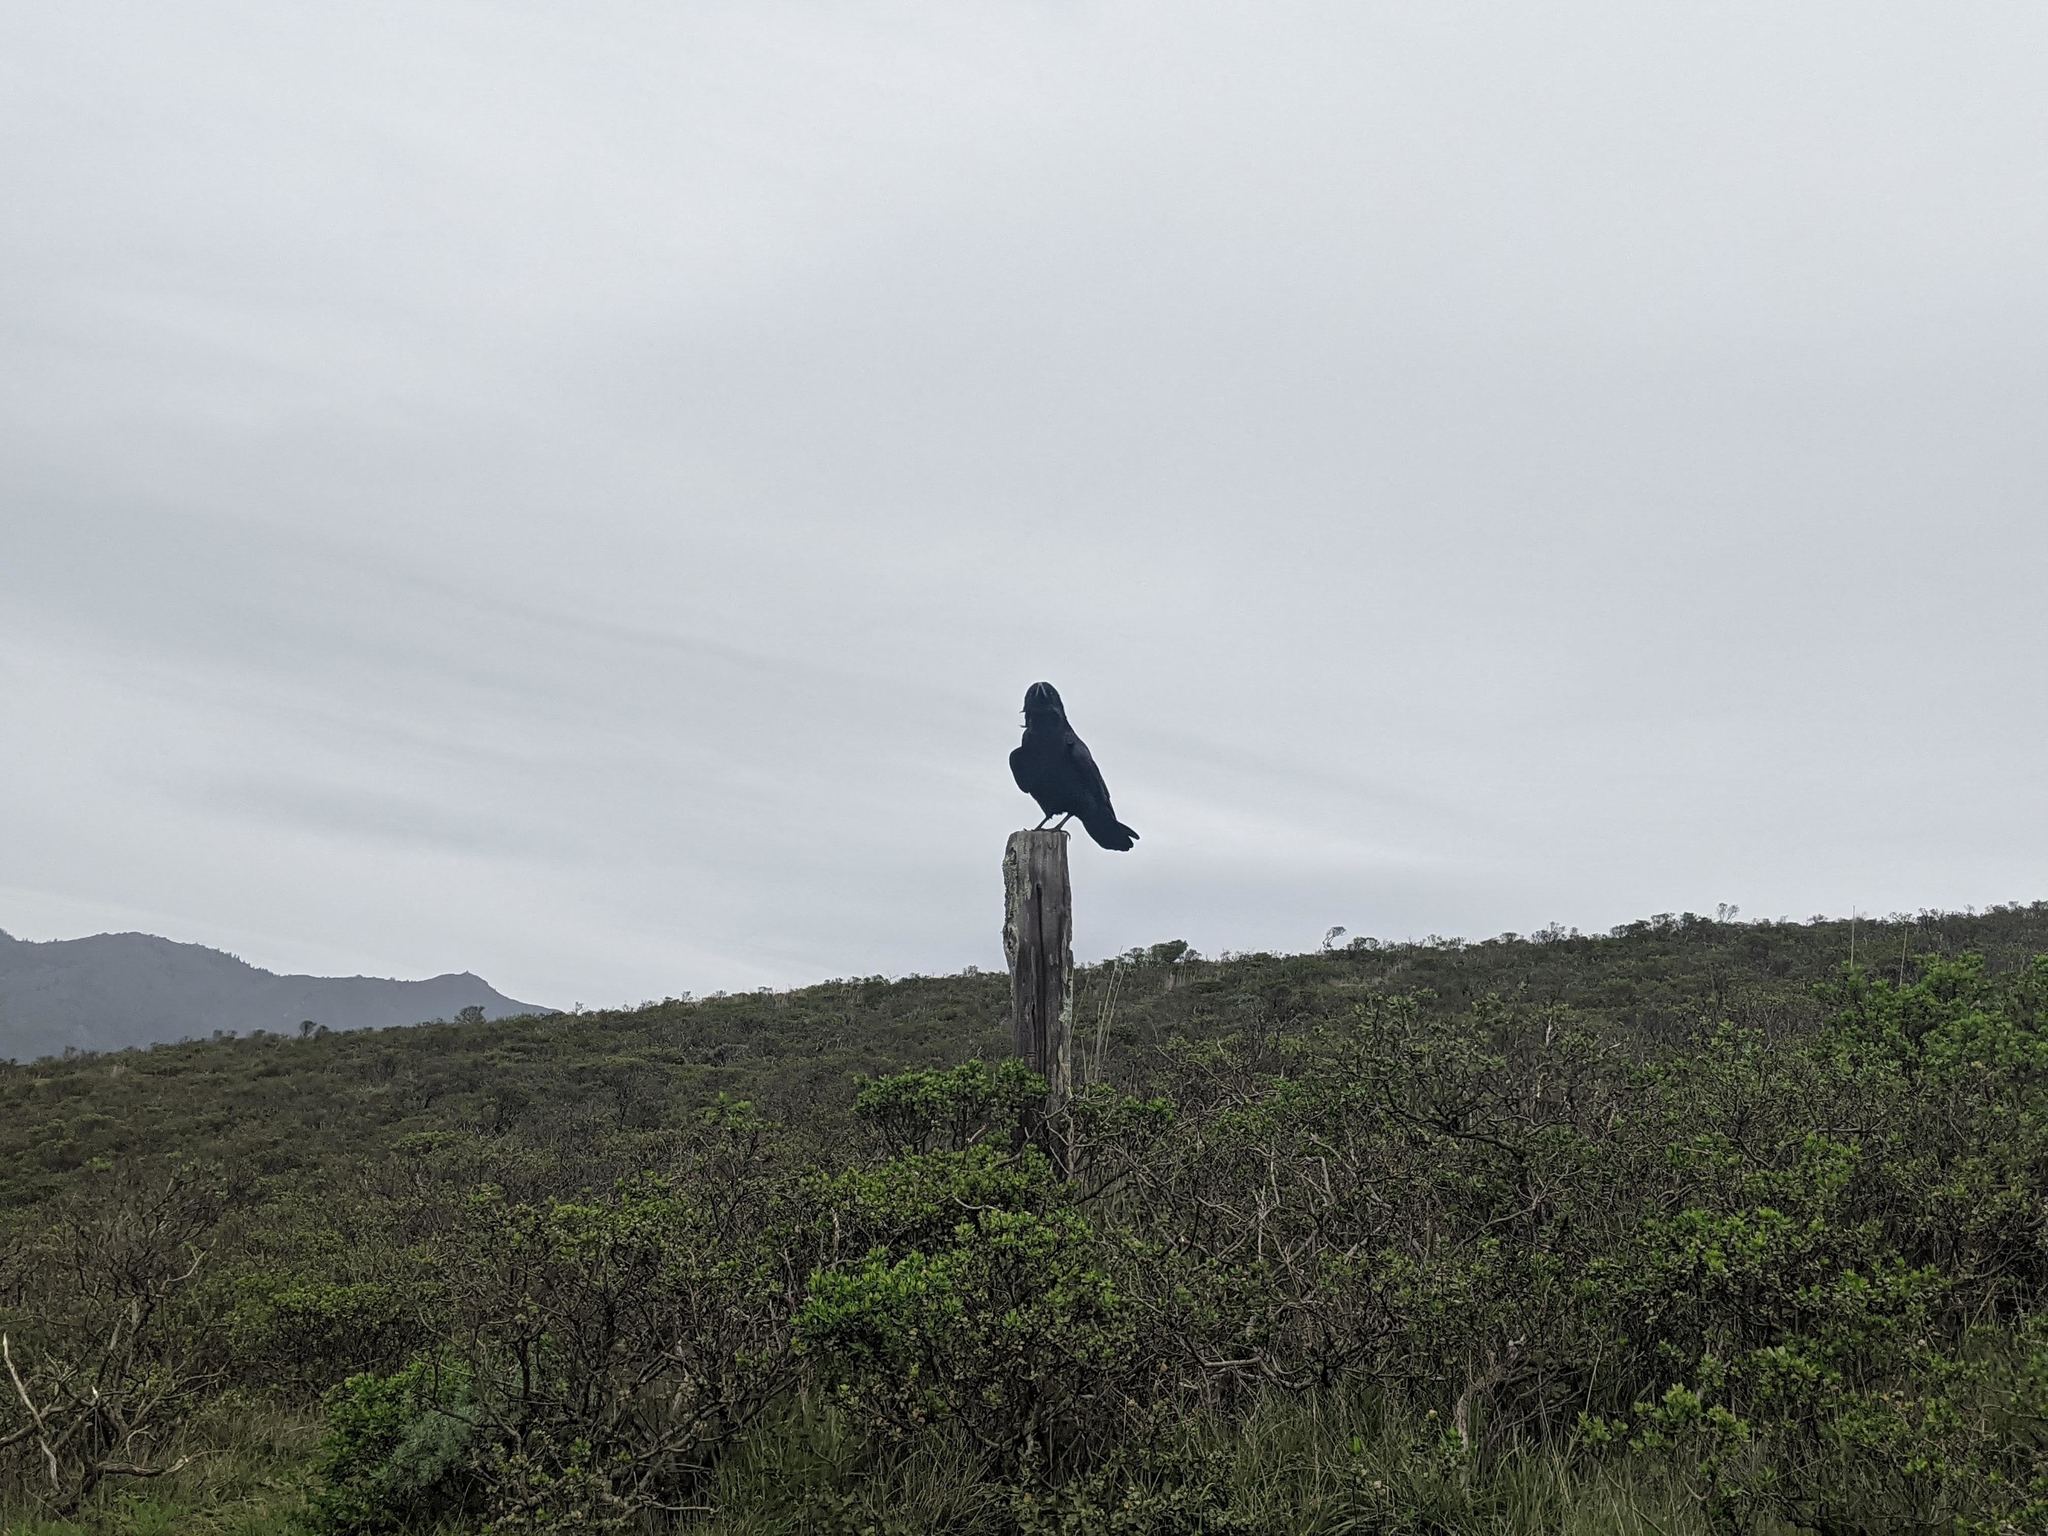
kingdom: Animalia
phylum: Chordata
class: Aves
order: Passeriformes
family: Corvidae
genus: Corvus
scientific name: Corvus corax
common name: Common raven
